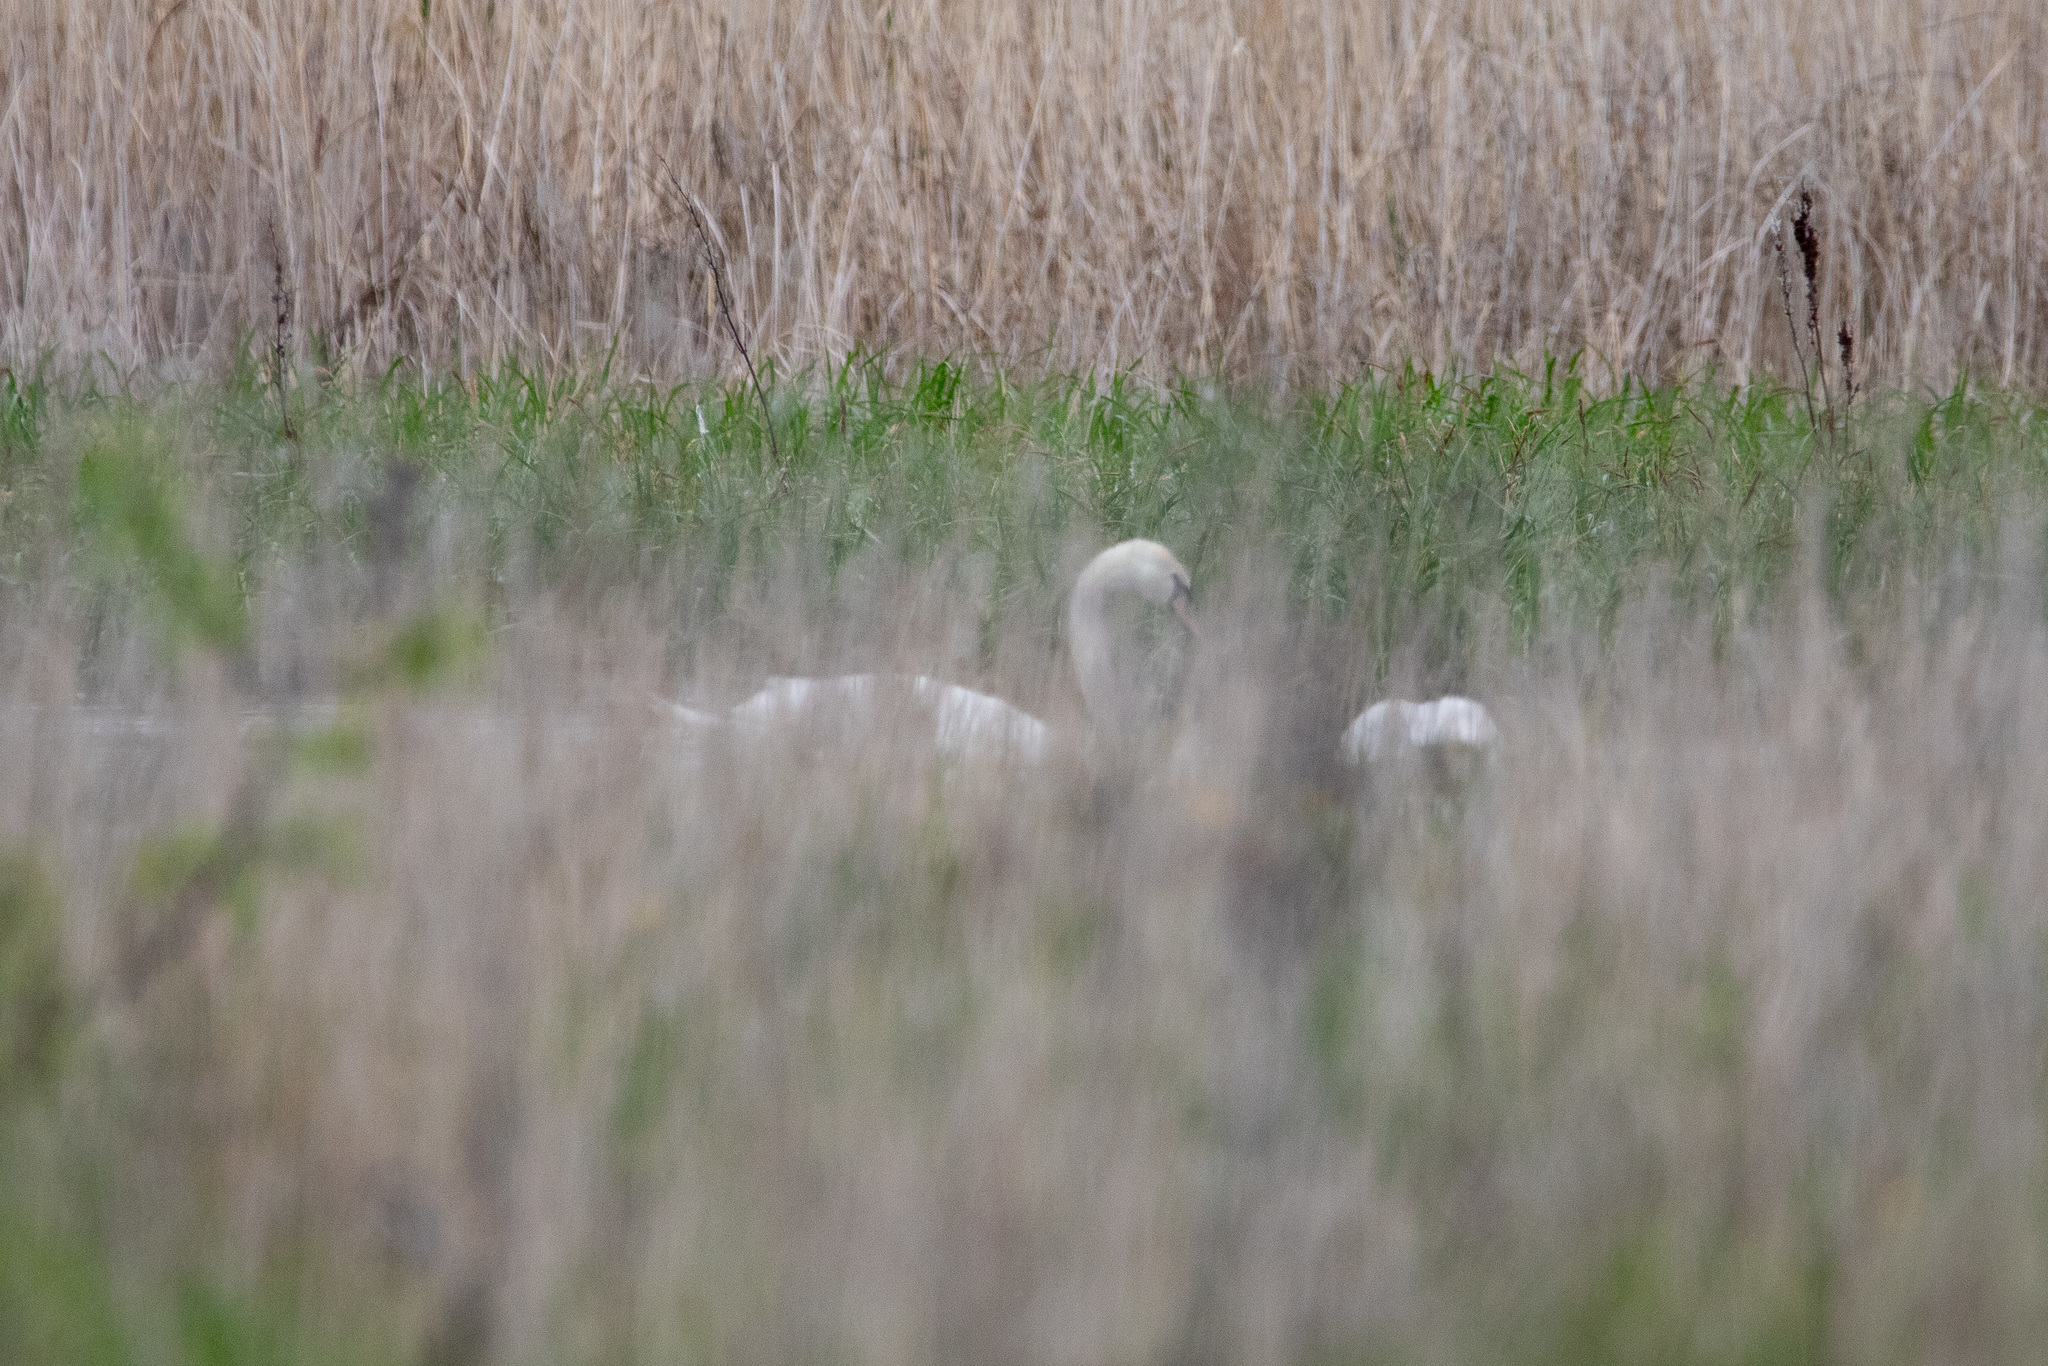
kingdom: Animalia
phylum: Chordata
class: Aves
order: Anseriformes
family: Anatidae
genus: Cygnus
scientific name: Cygnus olor
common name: Mute swan
